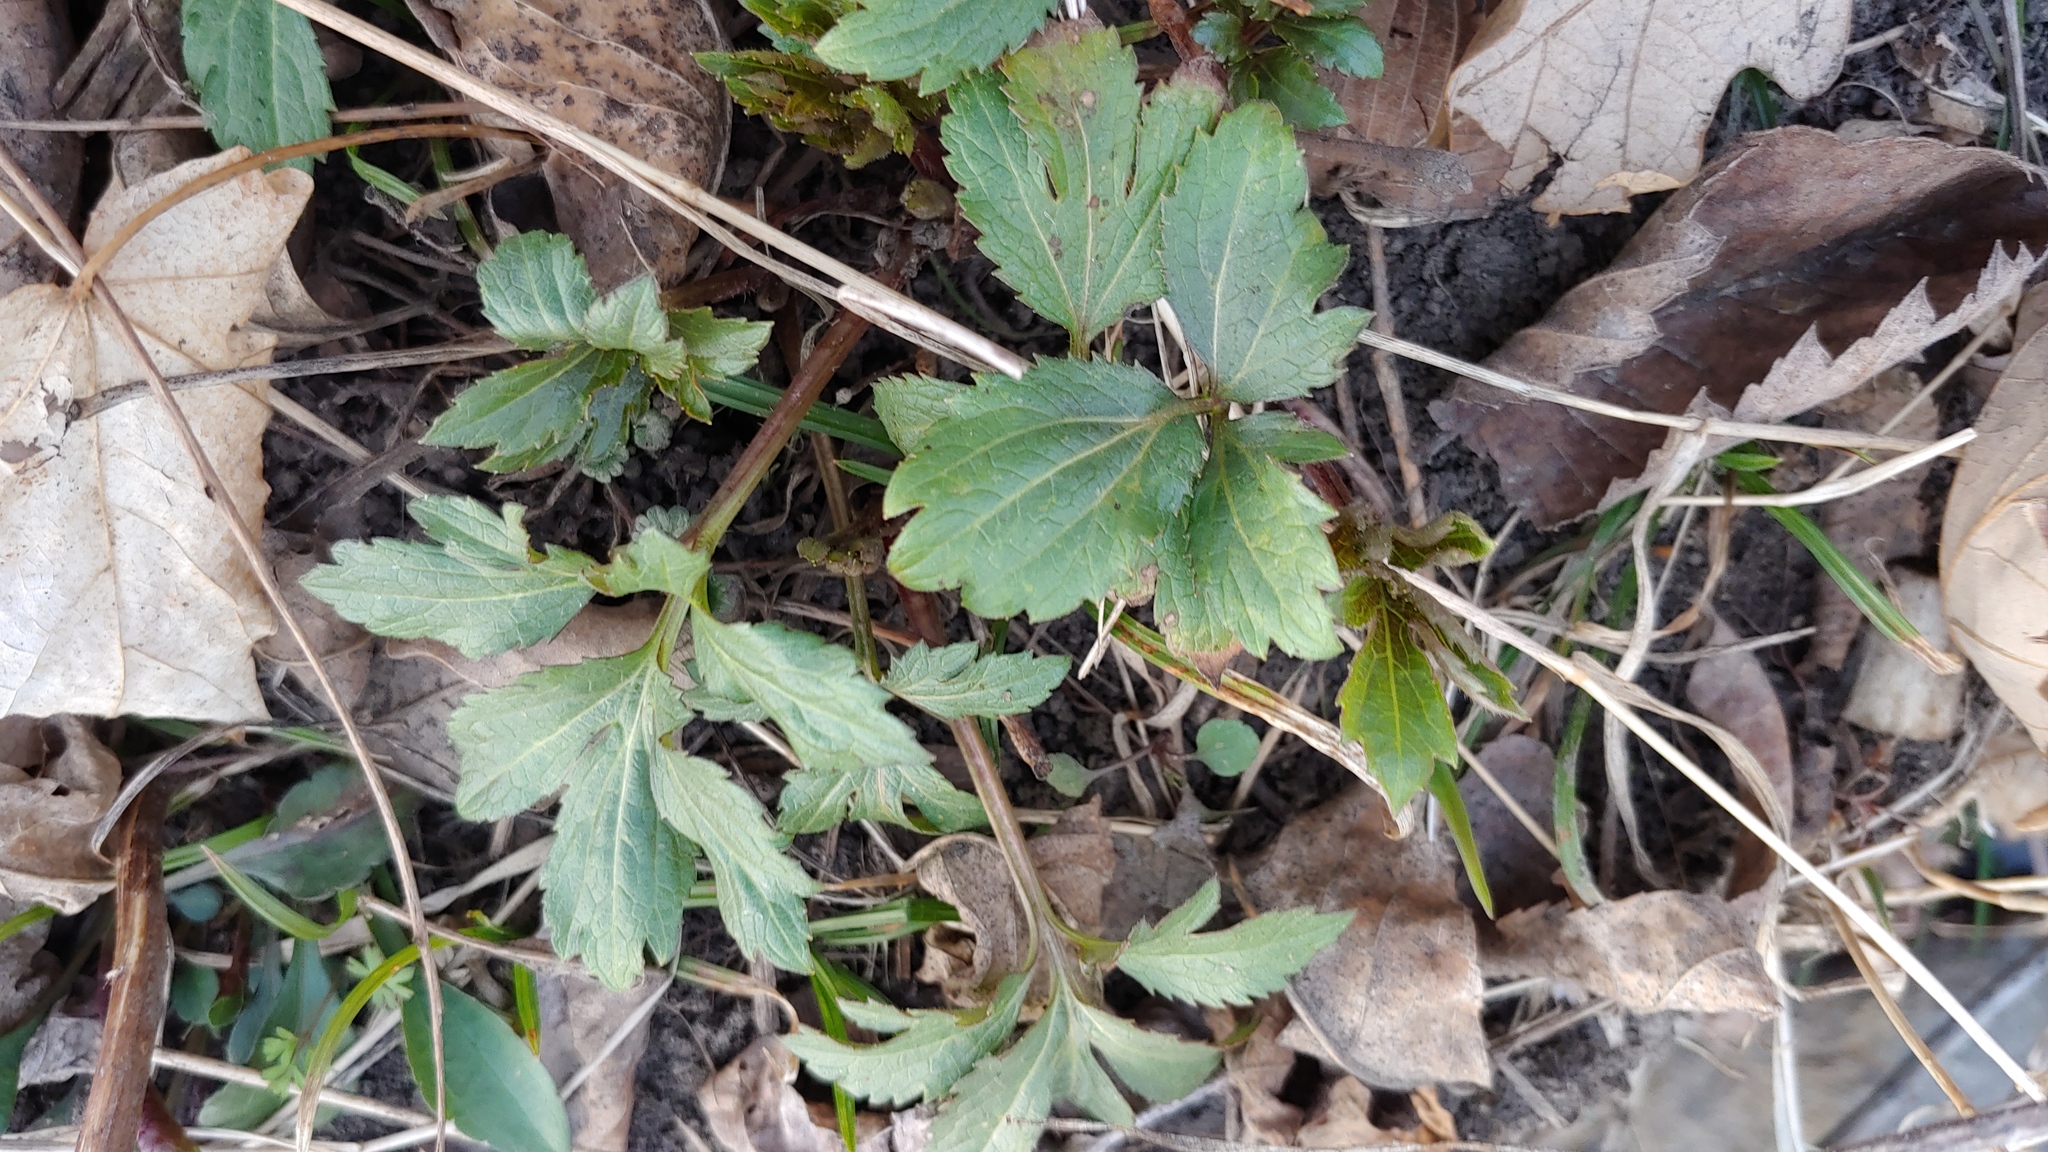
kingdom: Plantae
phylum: Tracheophyta
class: Magnoliopsida
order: Asterales
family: Asteraceae
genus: Rudbeckia
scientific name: Rudbeckia laciniata
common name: Coneflower
